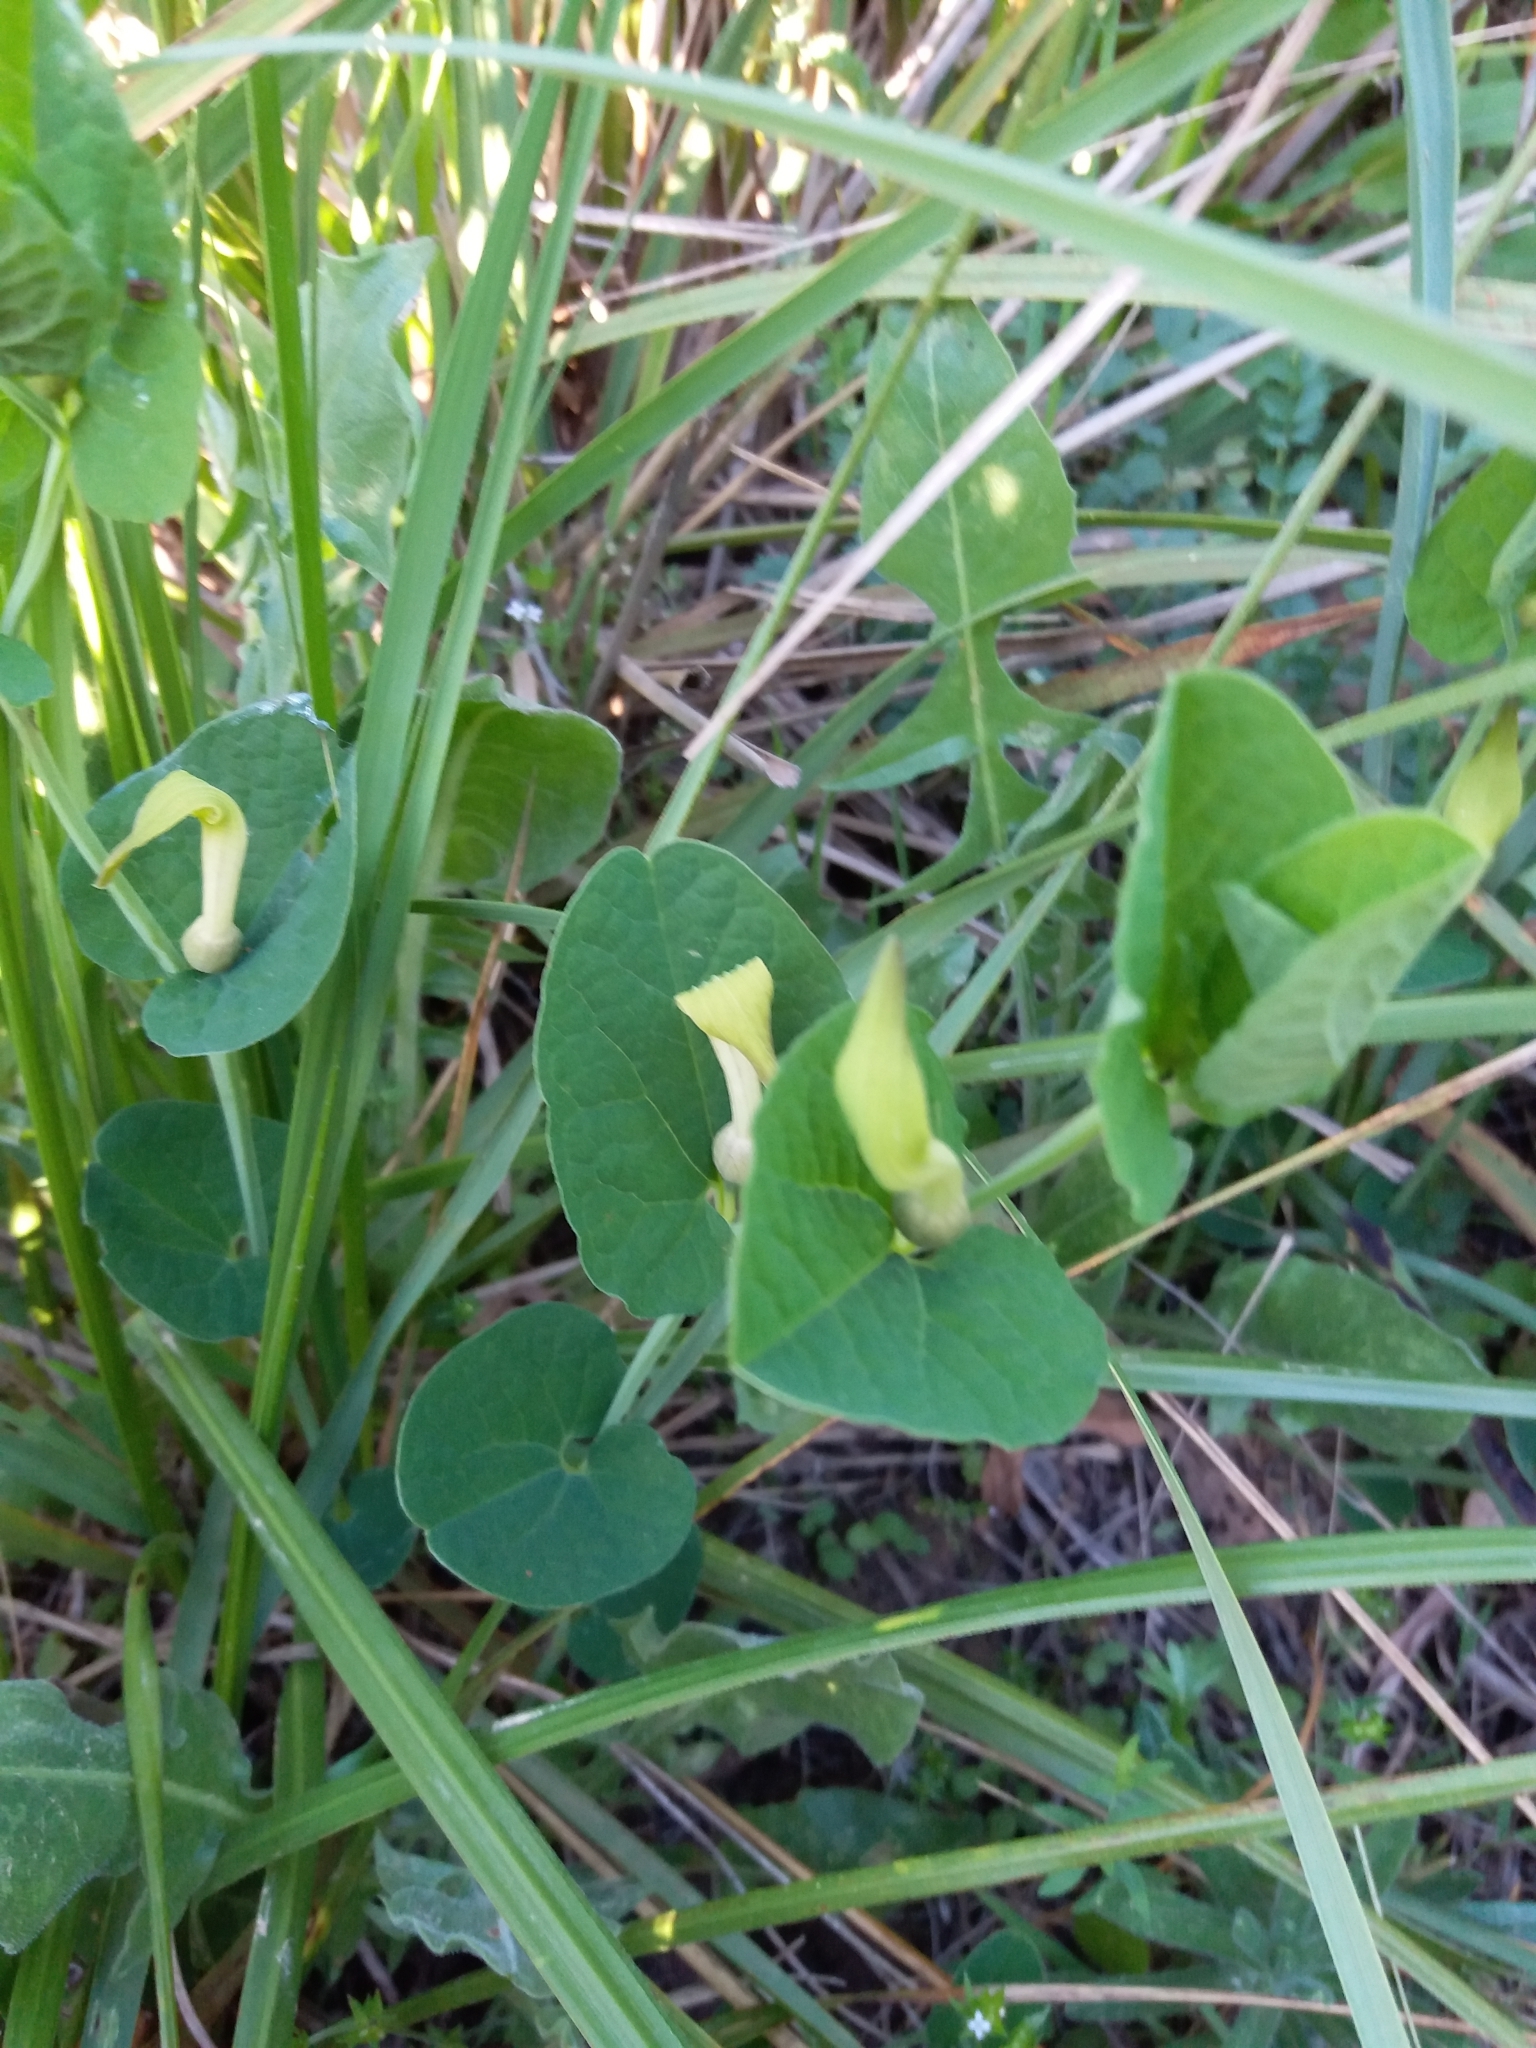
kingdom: Plantae
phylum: Tracheophyta
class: Magnoliopsida
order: Piperales
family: Aristolochiaceae
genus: Aristolochia
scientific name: Aristolochia navicularis
